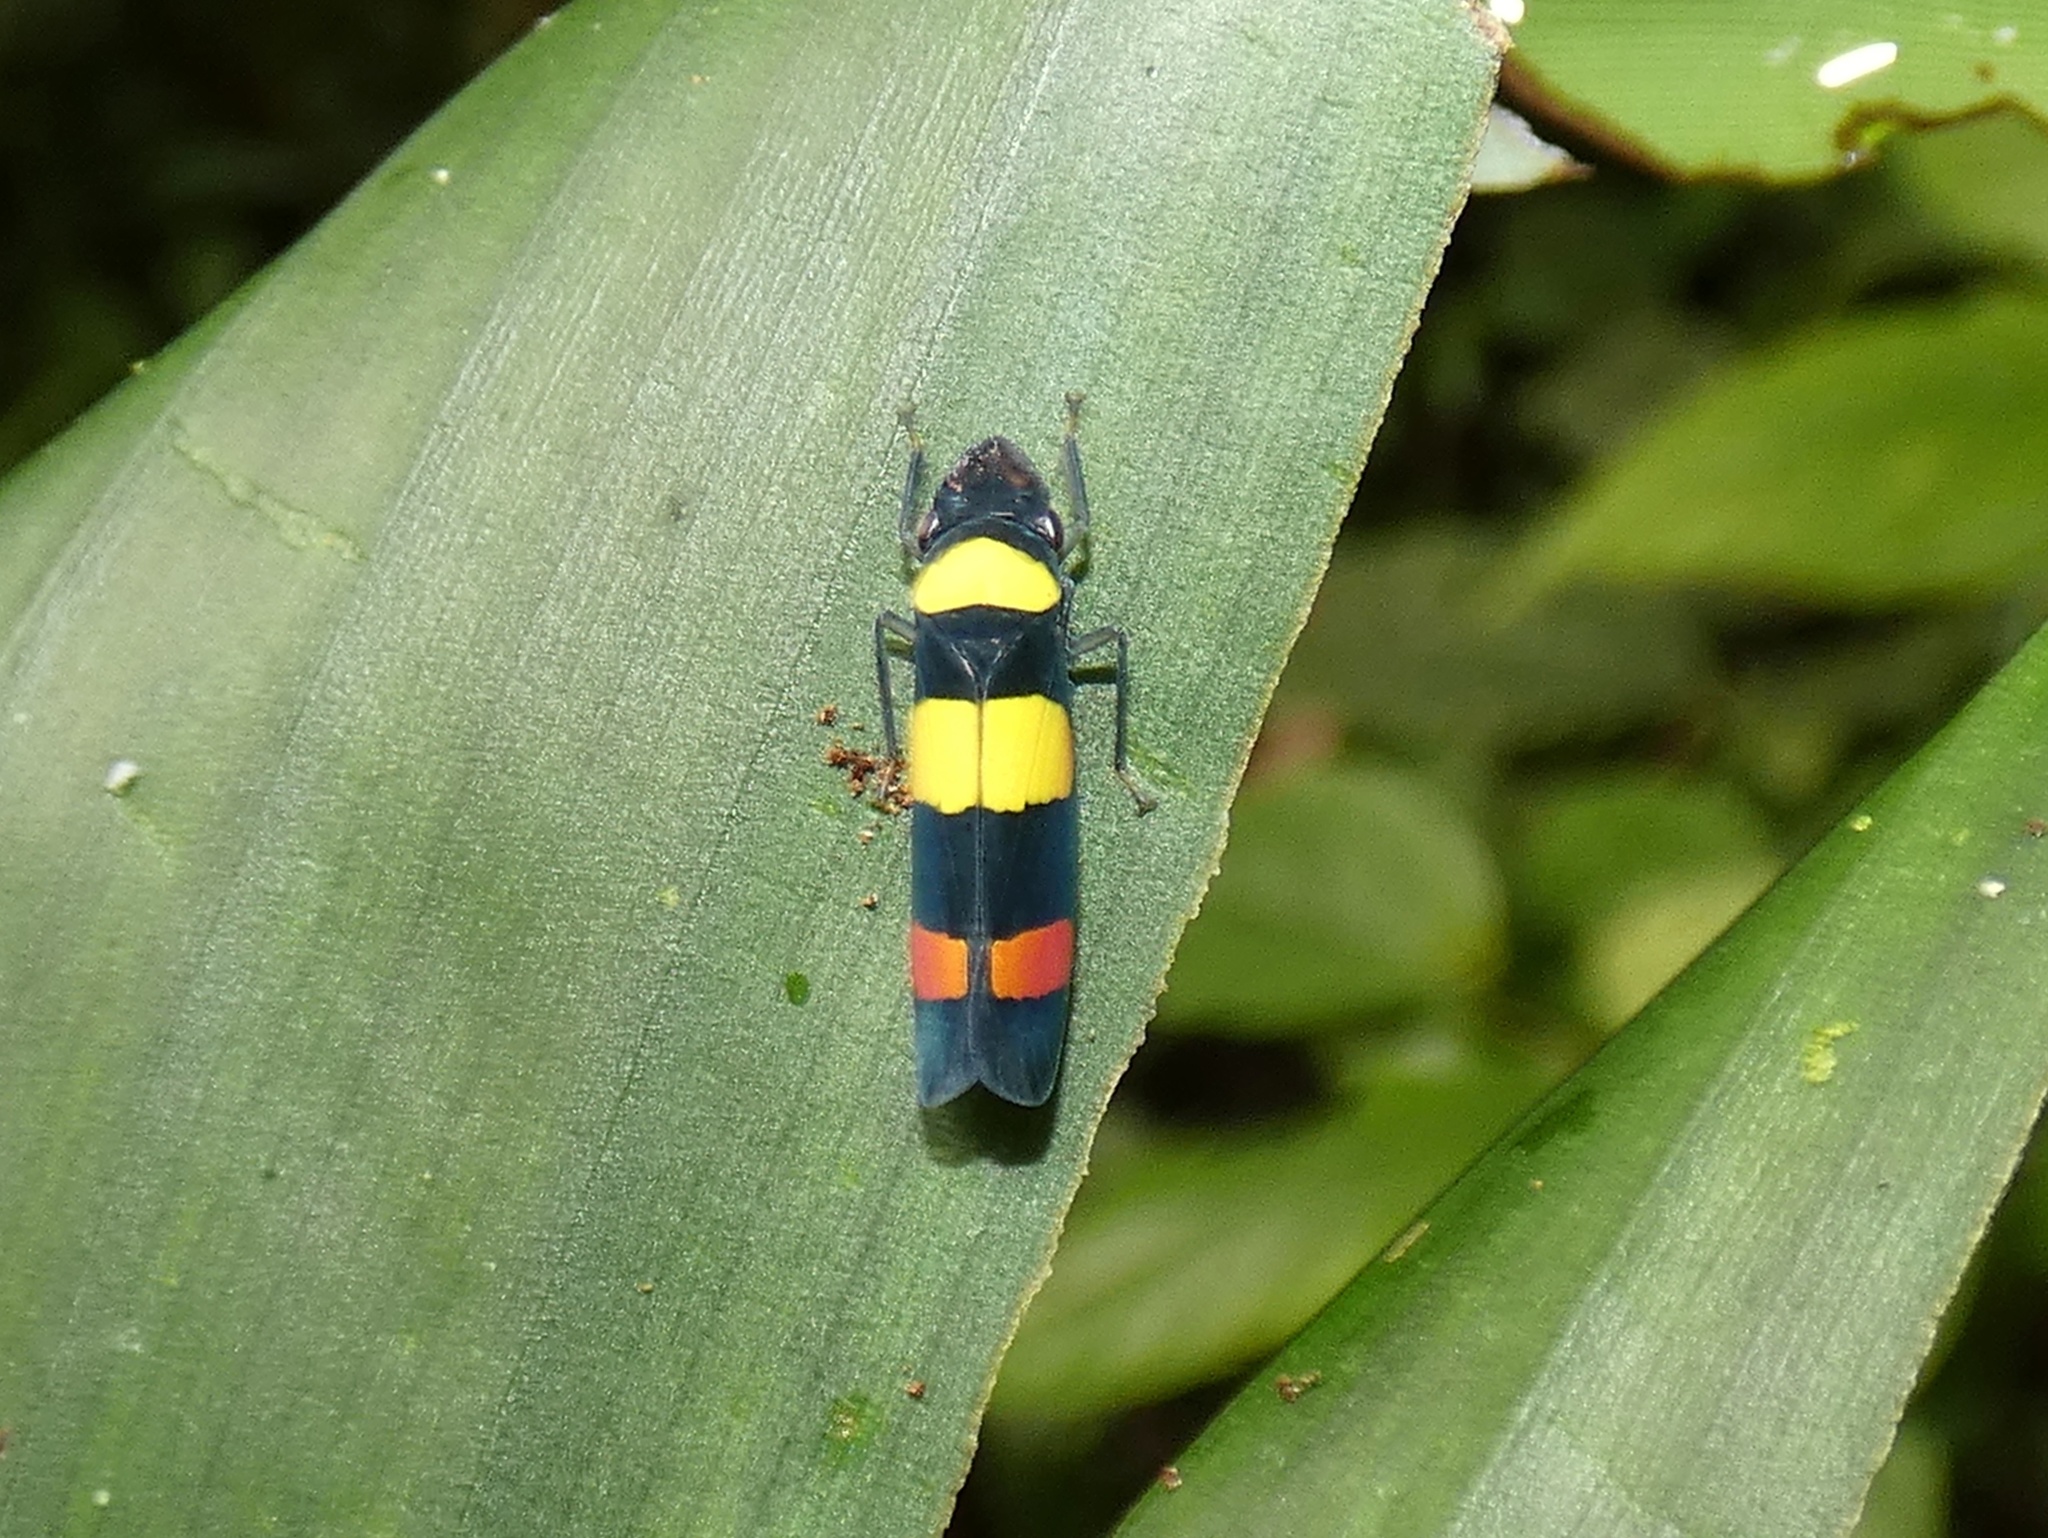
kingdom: Animalia
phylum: Arthropoda
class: Insecta
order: Hemiptera
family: Cicadellidae
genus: Platygonia
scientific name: Platygonia praestantior
